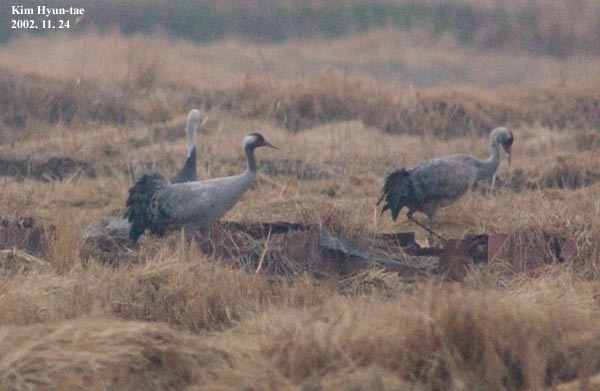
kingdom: Animalia
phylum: Chordata
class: Aves
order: Gruiformes
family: Gruidae
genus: Grus
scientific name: Grus grus
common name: Common crane
